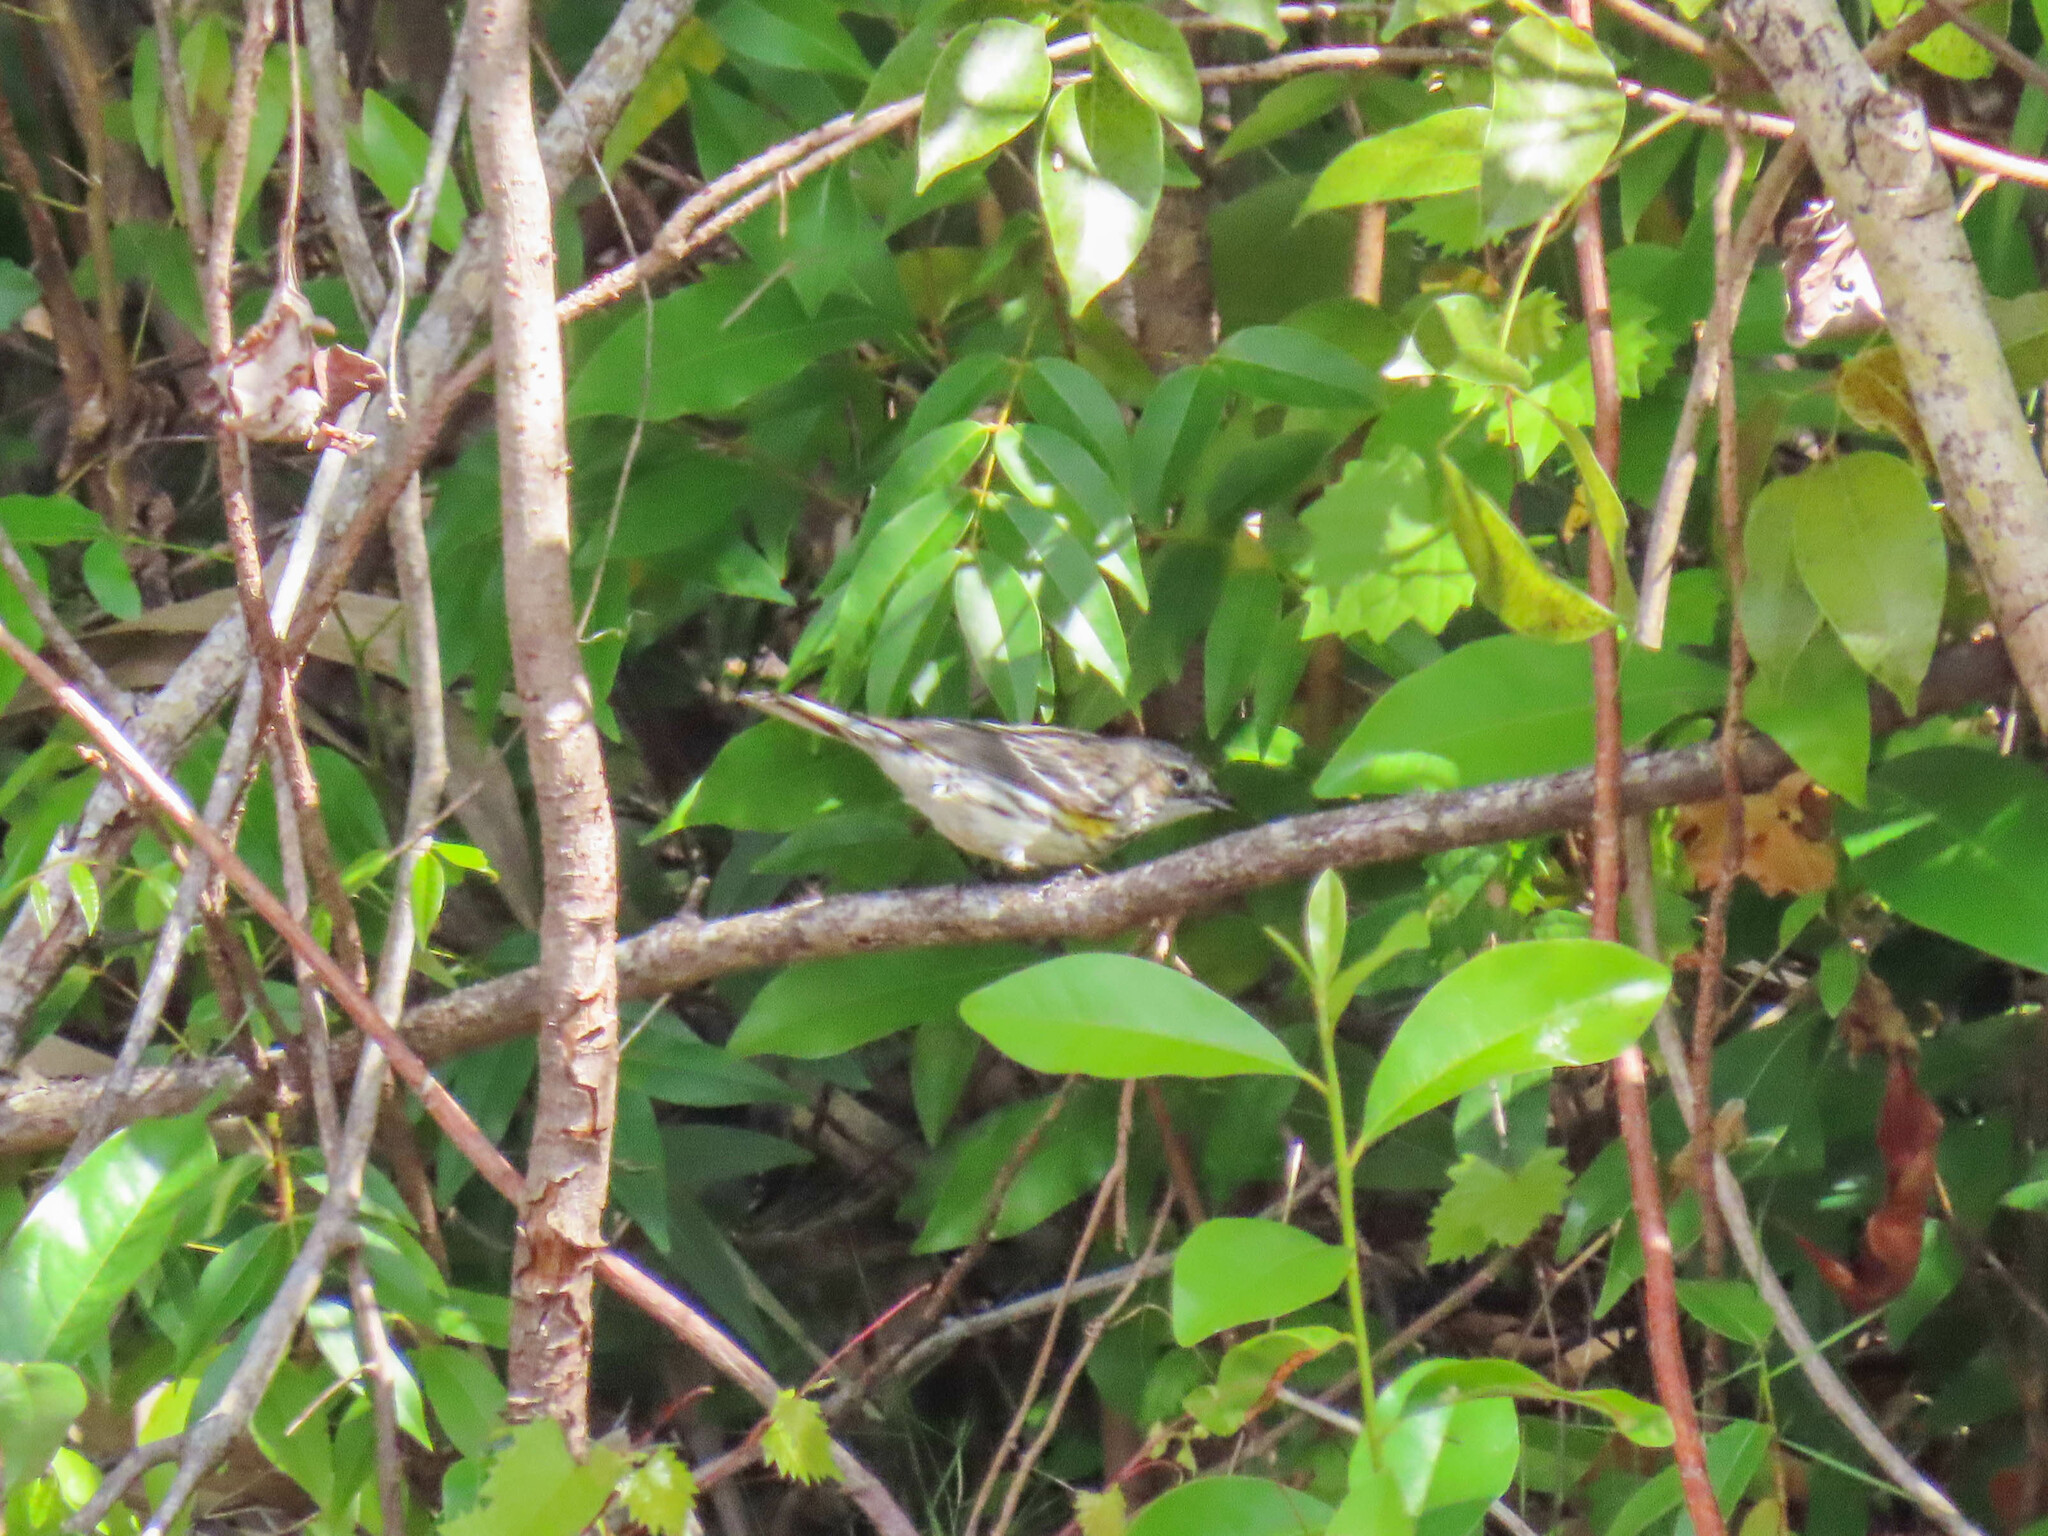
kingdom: Animalia
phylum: Chordata
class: Aves
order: Passeriformes
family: Parulidae
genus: Setophaga
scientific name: Setophaga coronata
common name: Myrtle warbler
